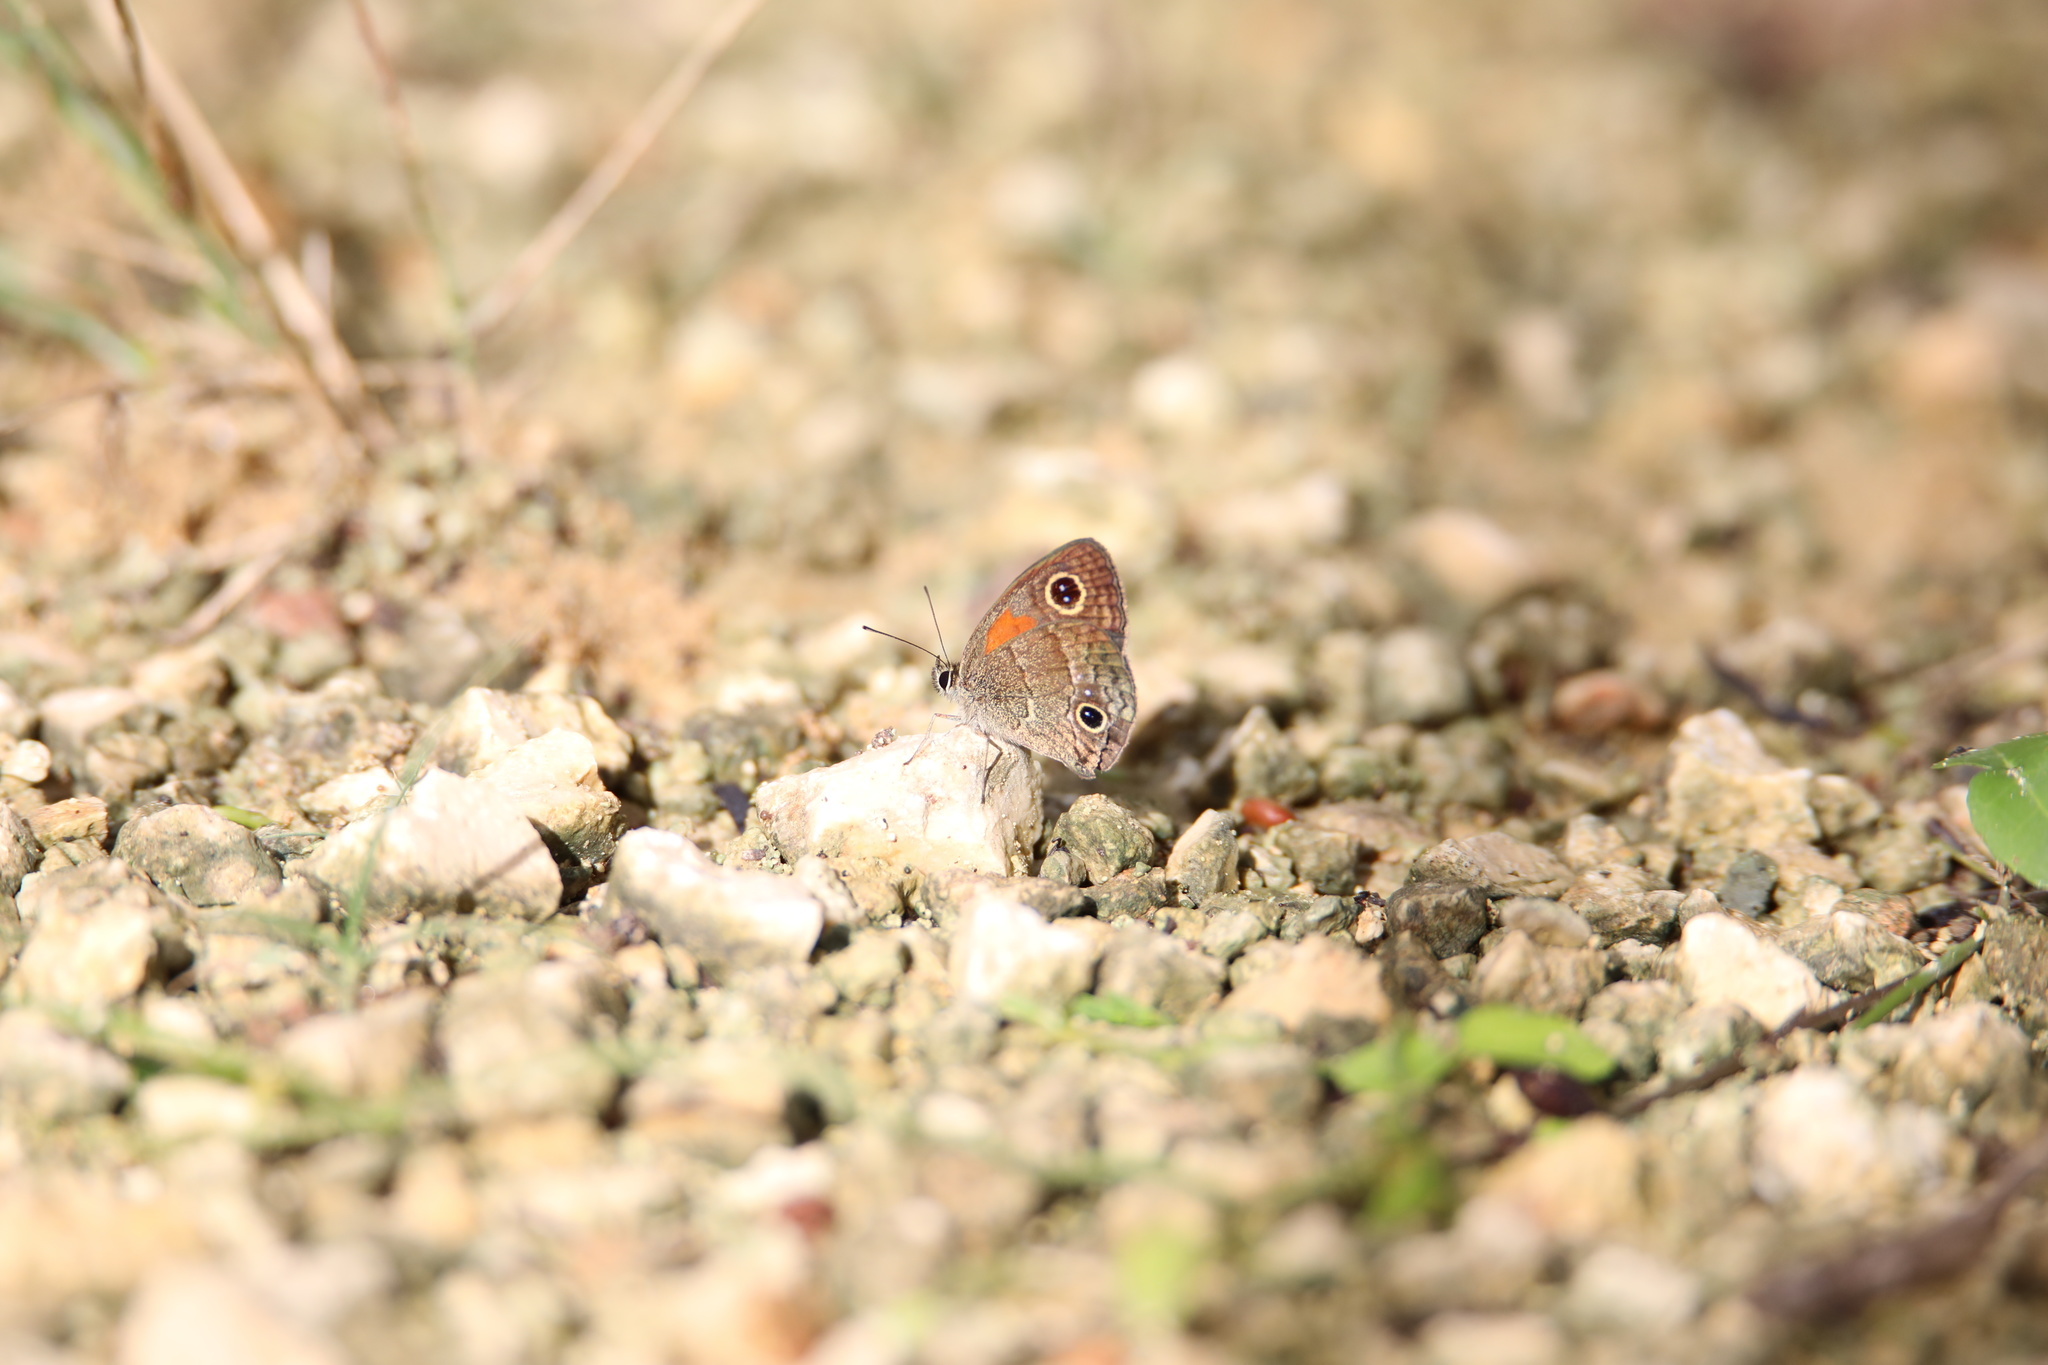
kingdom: Animalia
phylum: Arthropoda
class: Insecta
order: Lepidoptera
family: Nymphalidae
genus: Calisto
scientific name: Calisto obscura
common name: Obscure calisto
